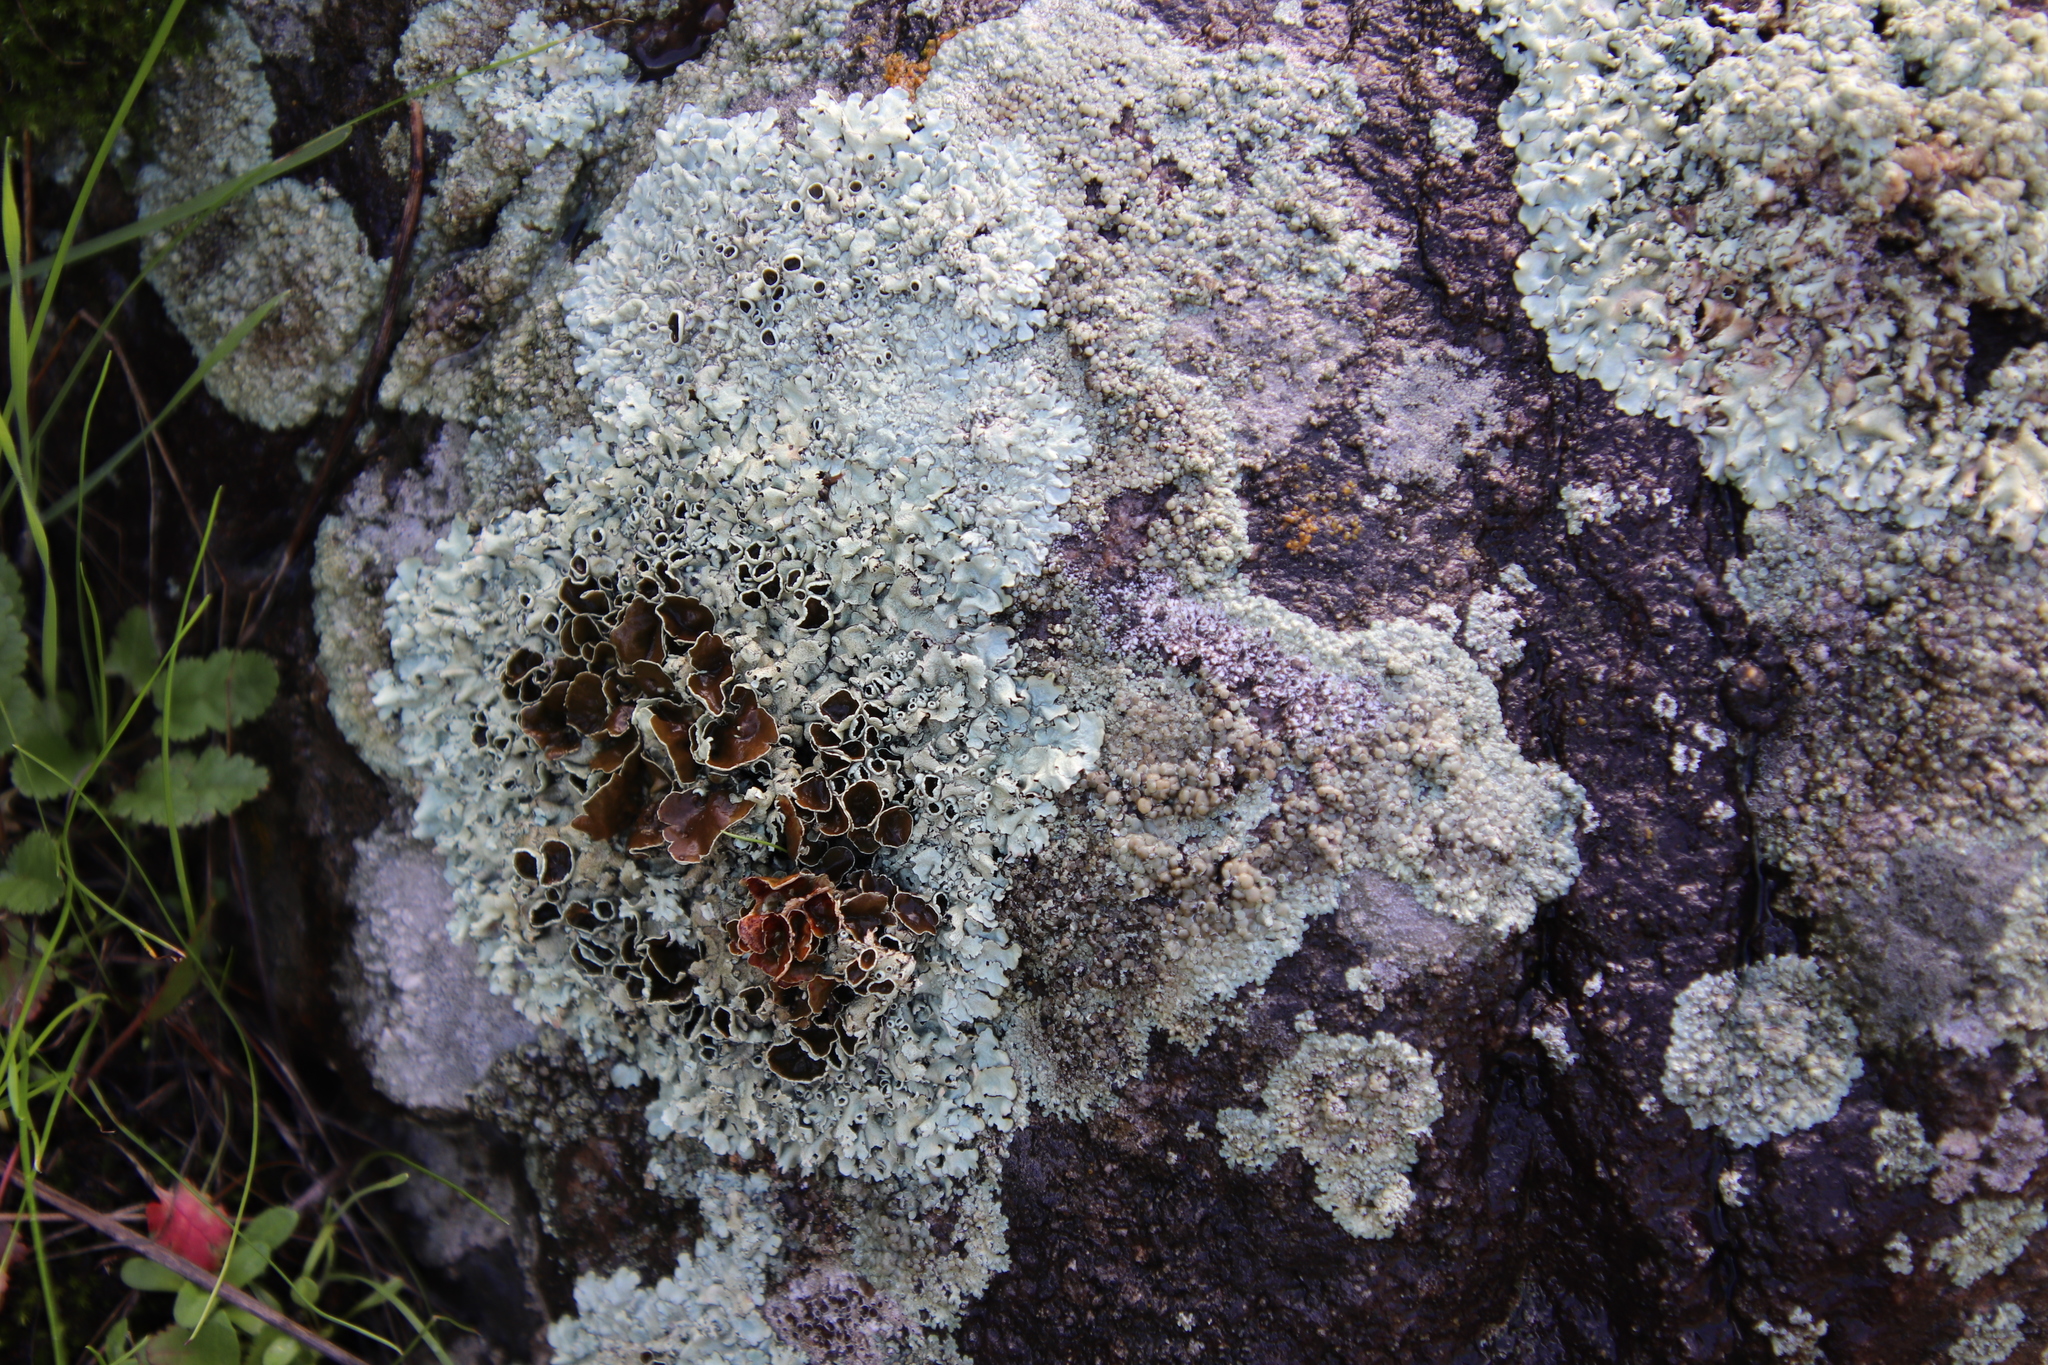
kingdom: Fungi
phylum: Ascomycota
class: Lecanoromycetes
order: Lecanorales
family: Parmeliaceae
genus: Xanthoparmelia
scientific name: Xanthoparmelia cumberlandia
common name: Cumberland rock shield
